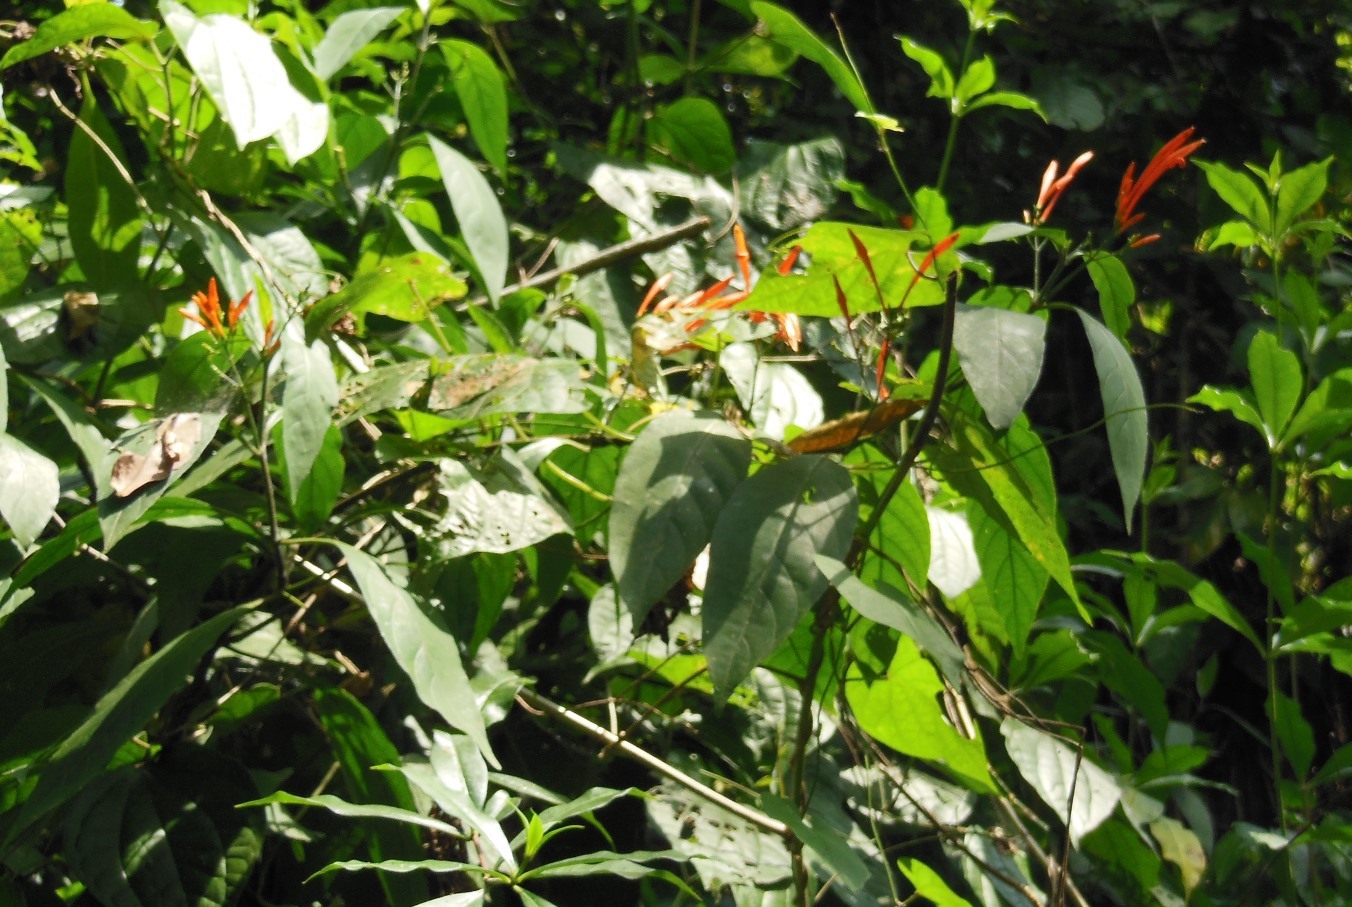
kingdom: Plantae
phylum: Tracheophyta
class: Magnoliopsida
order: Lamiales
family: Acanthaceae
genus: Dicliptera
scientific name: Dicliptera sexangularis
